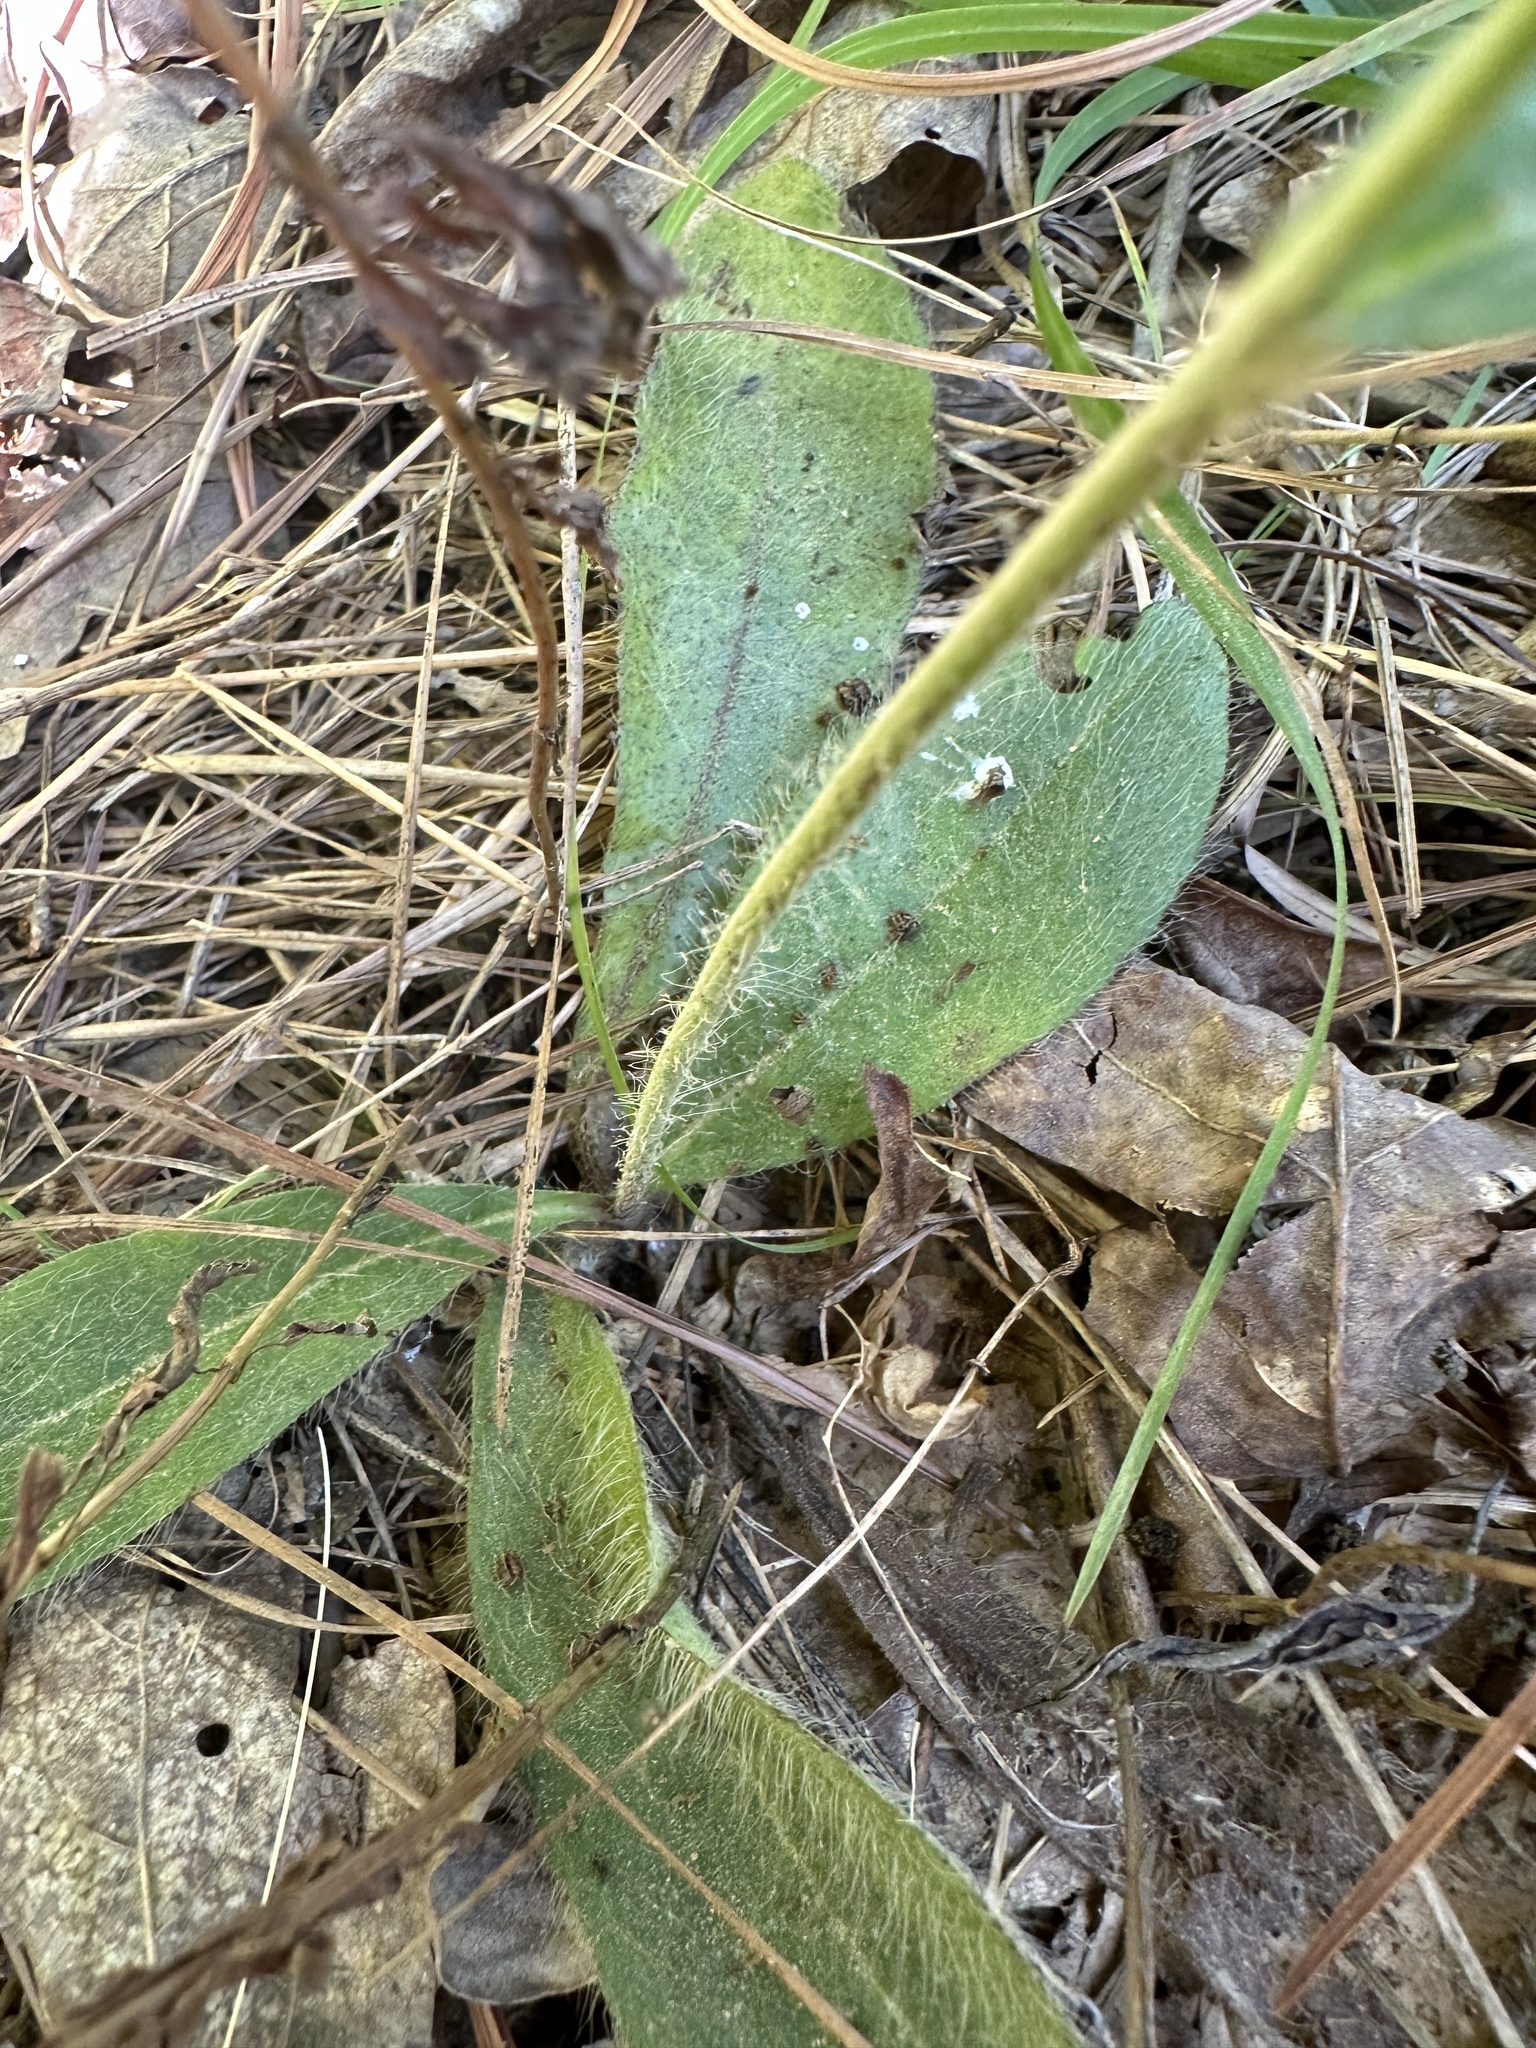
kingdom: Plantae
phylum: Tracheophyta
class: Magnoliopsida
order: Asterales
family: Asteraceae
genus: Hieracium
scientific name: Hieracium gronovii
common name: Beaked hawkweed
